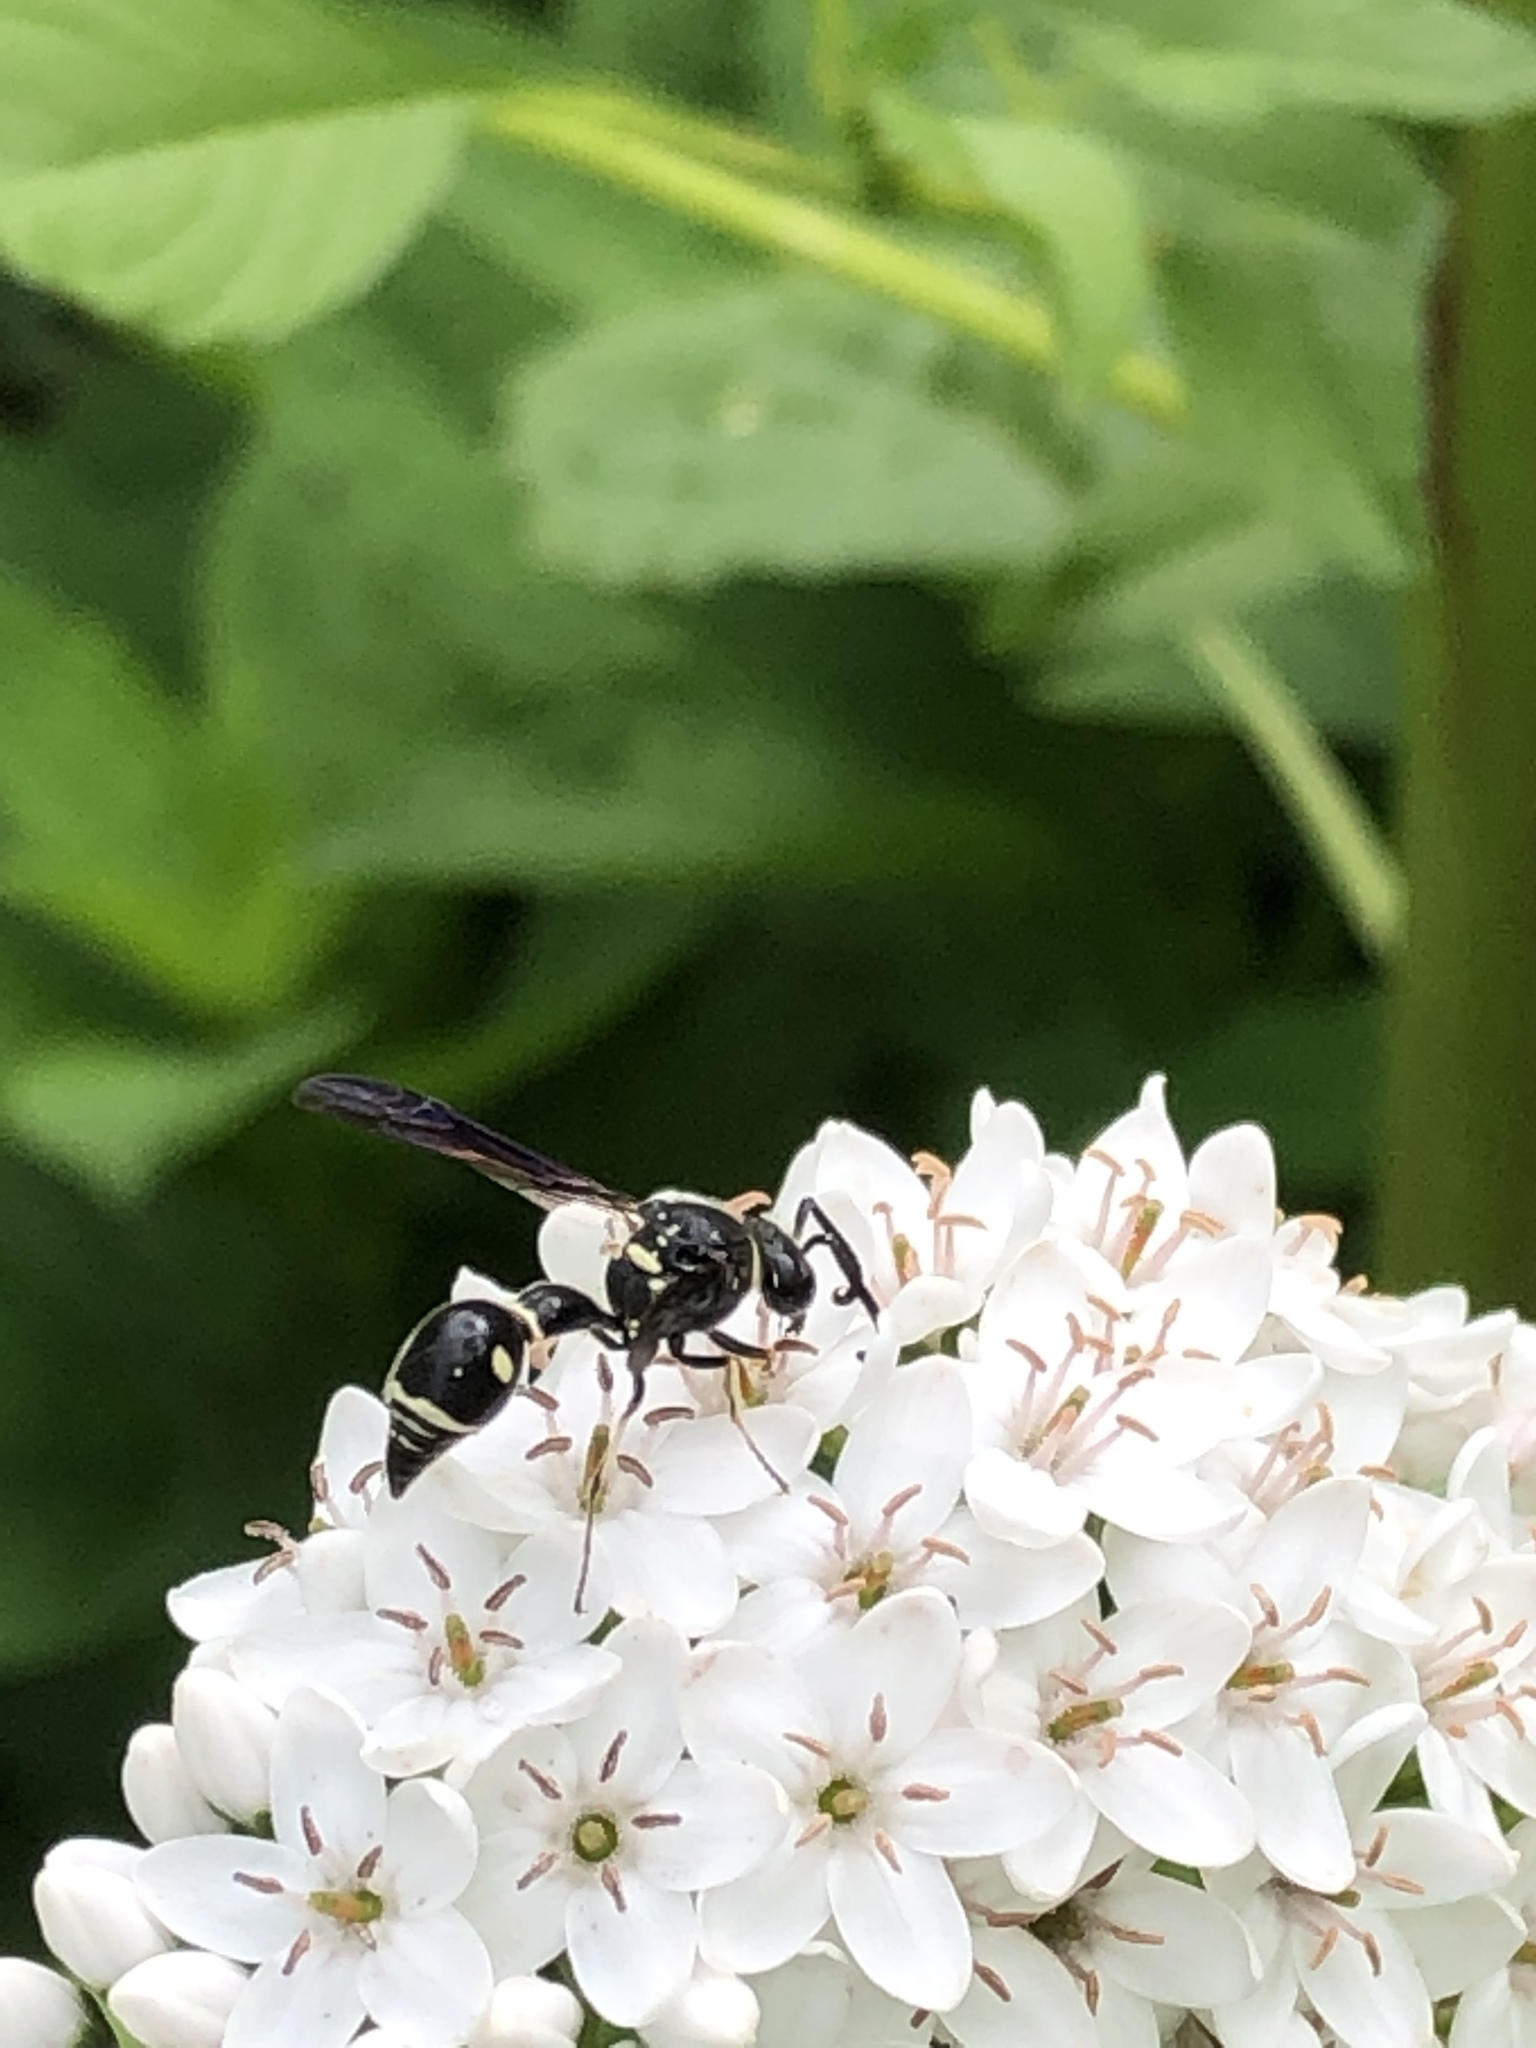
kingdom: Animalia
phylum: Arthropoda
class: Insecta
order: Hymenoptera
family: Vespidae
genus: Eumenes
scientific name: Eumenes fraternus
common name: Fraternal potter wasp
